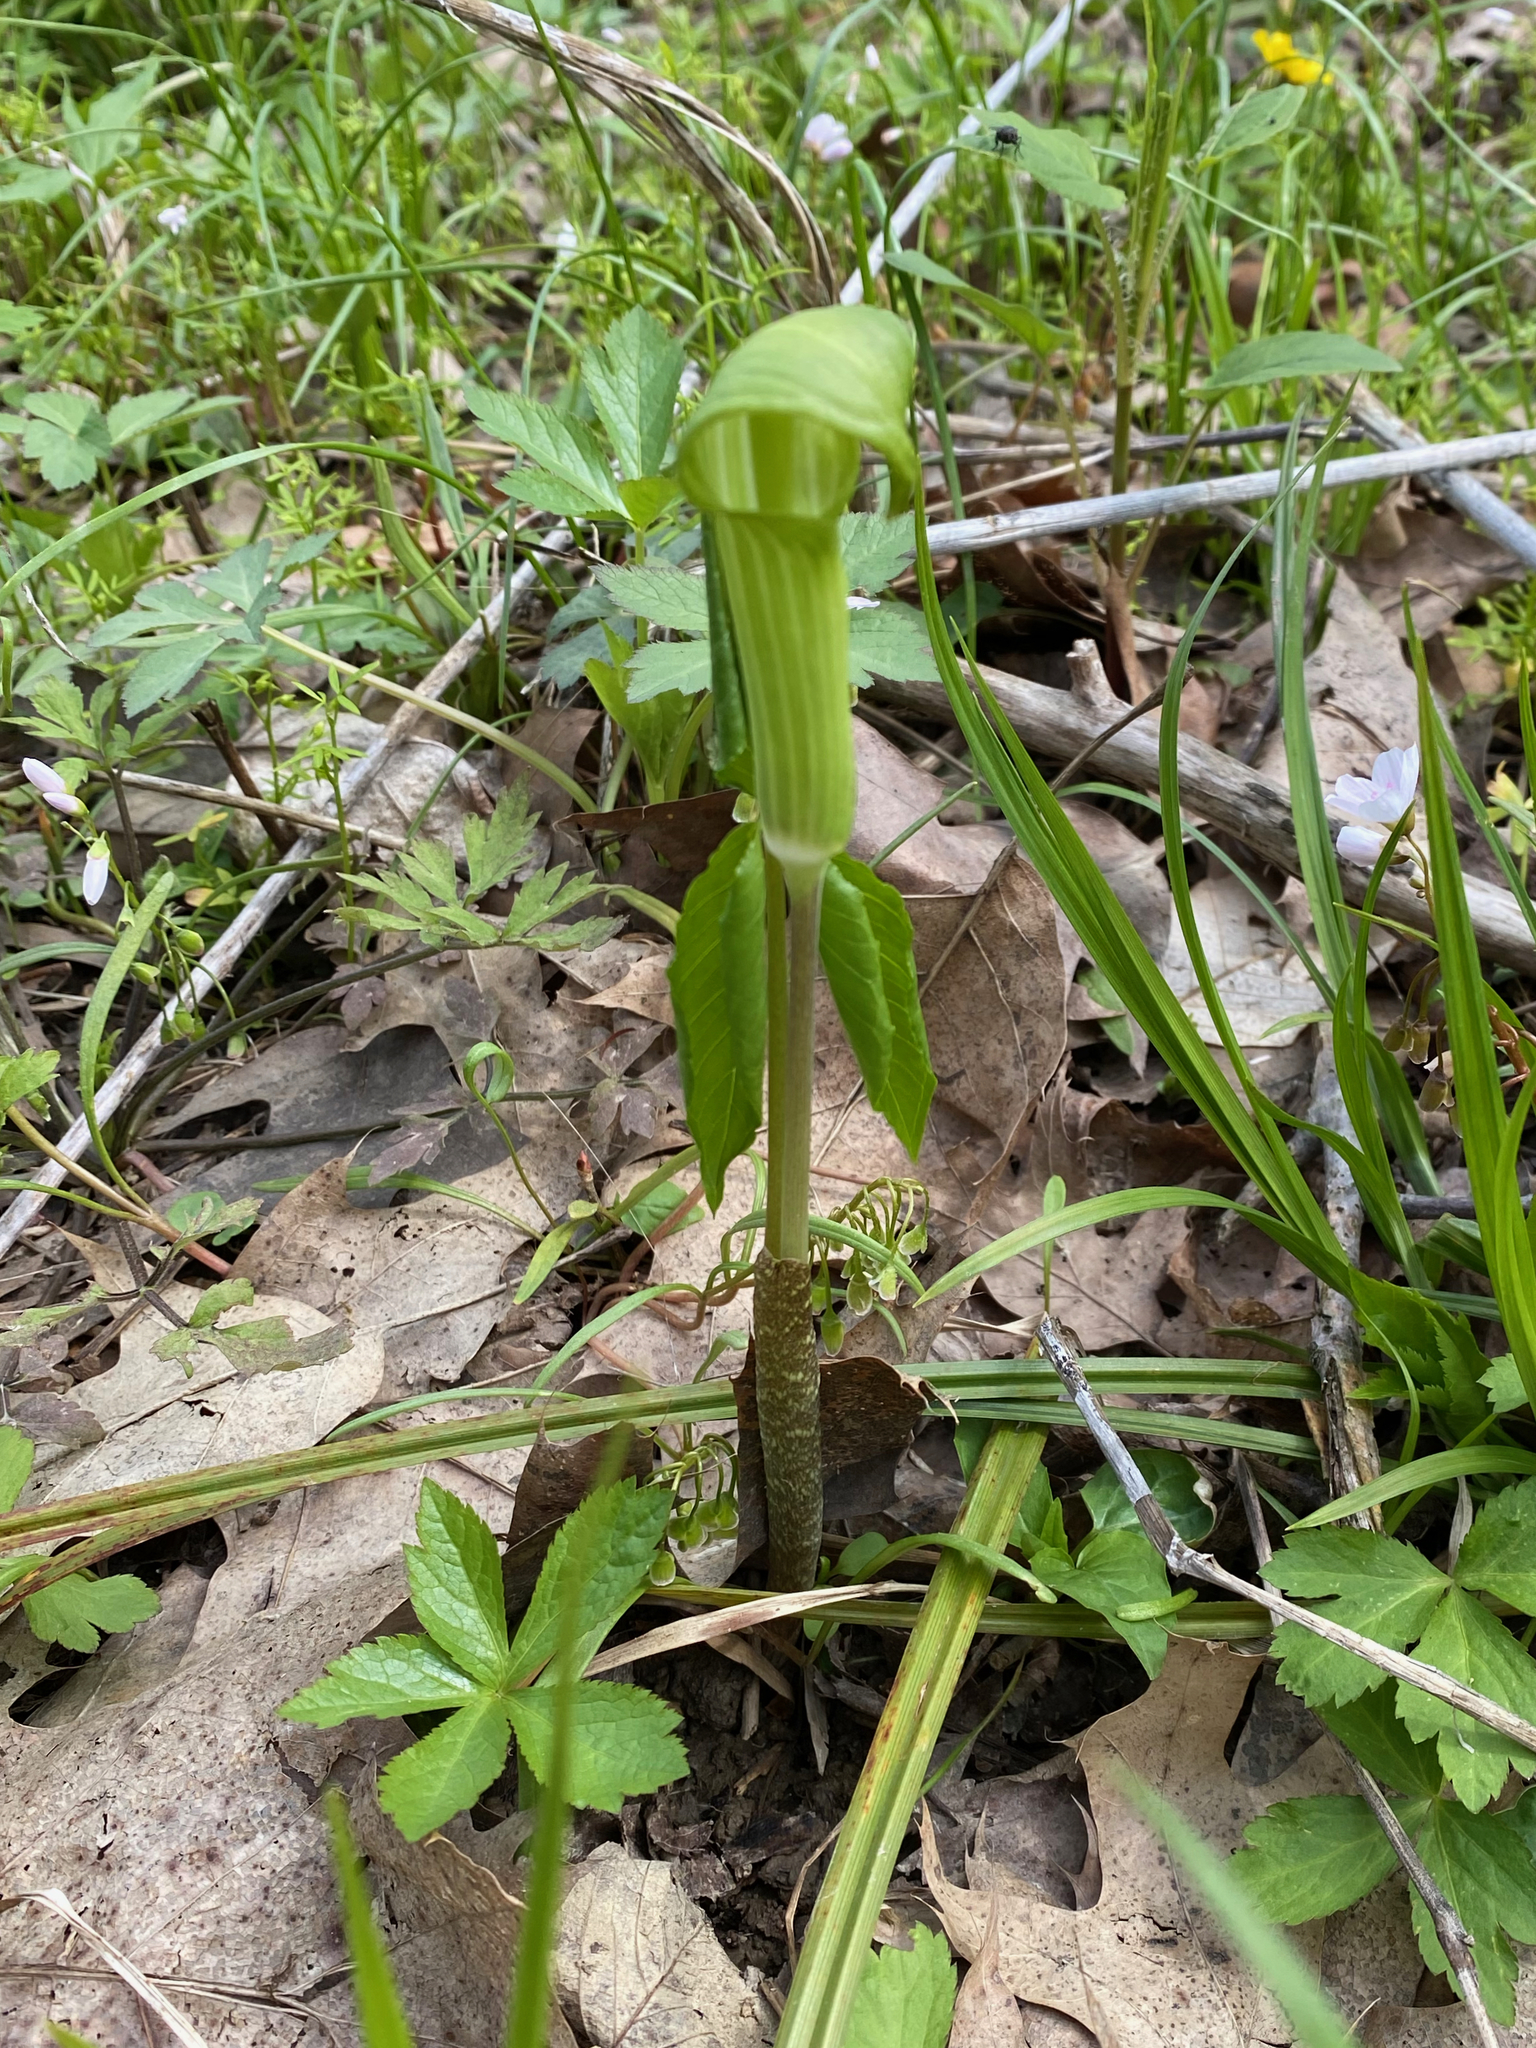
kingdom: Plantae
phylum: Tracheophyta
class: Liliopsida
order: Alismatales
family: Araceae
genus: Arisaema
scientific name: Arisaema triphyllum
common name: Jack-in-the-pulpit
